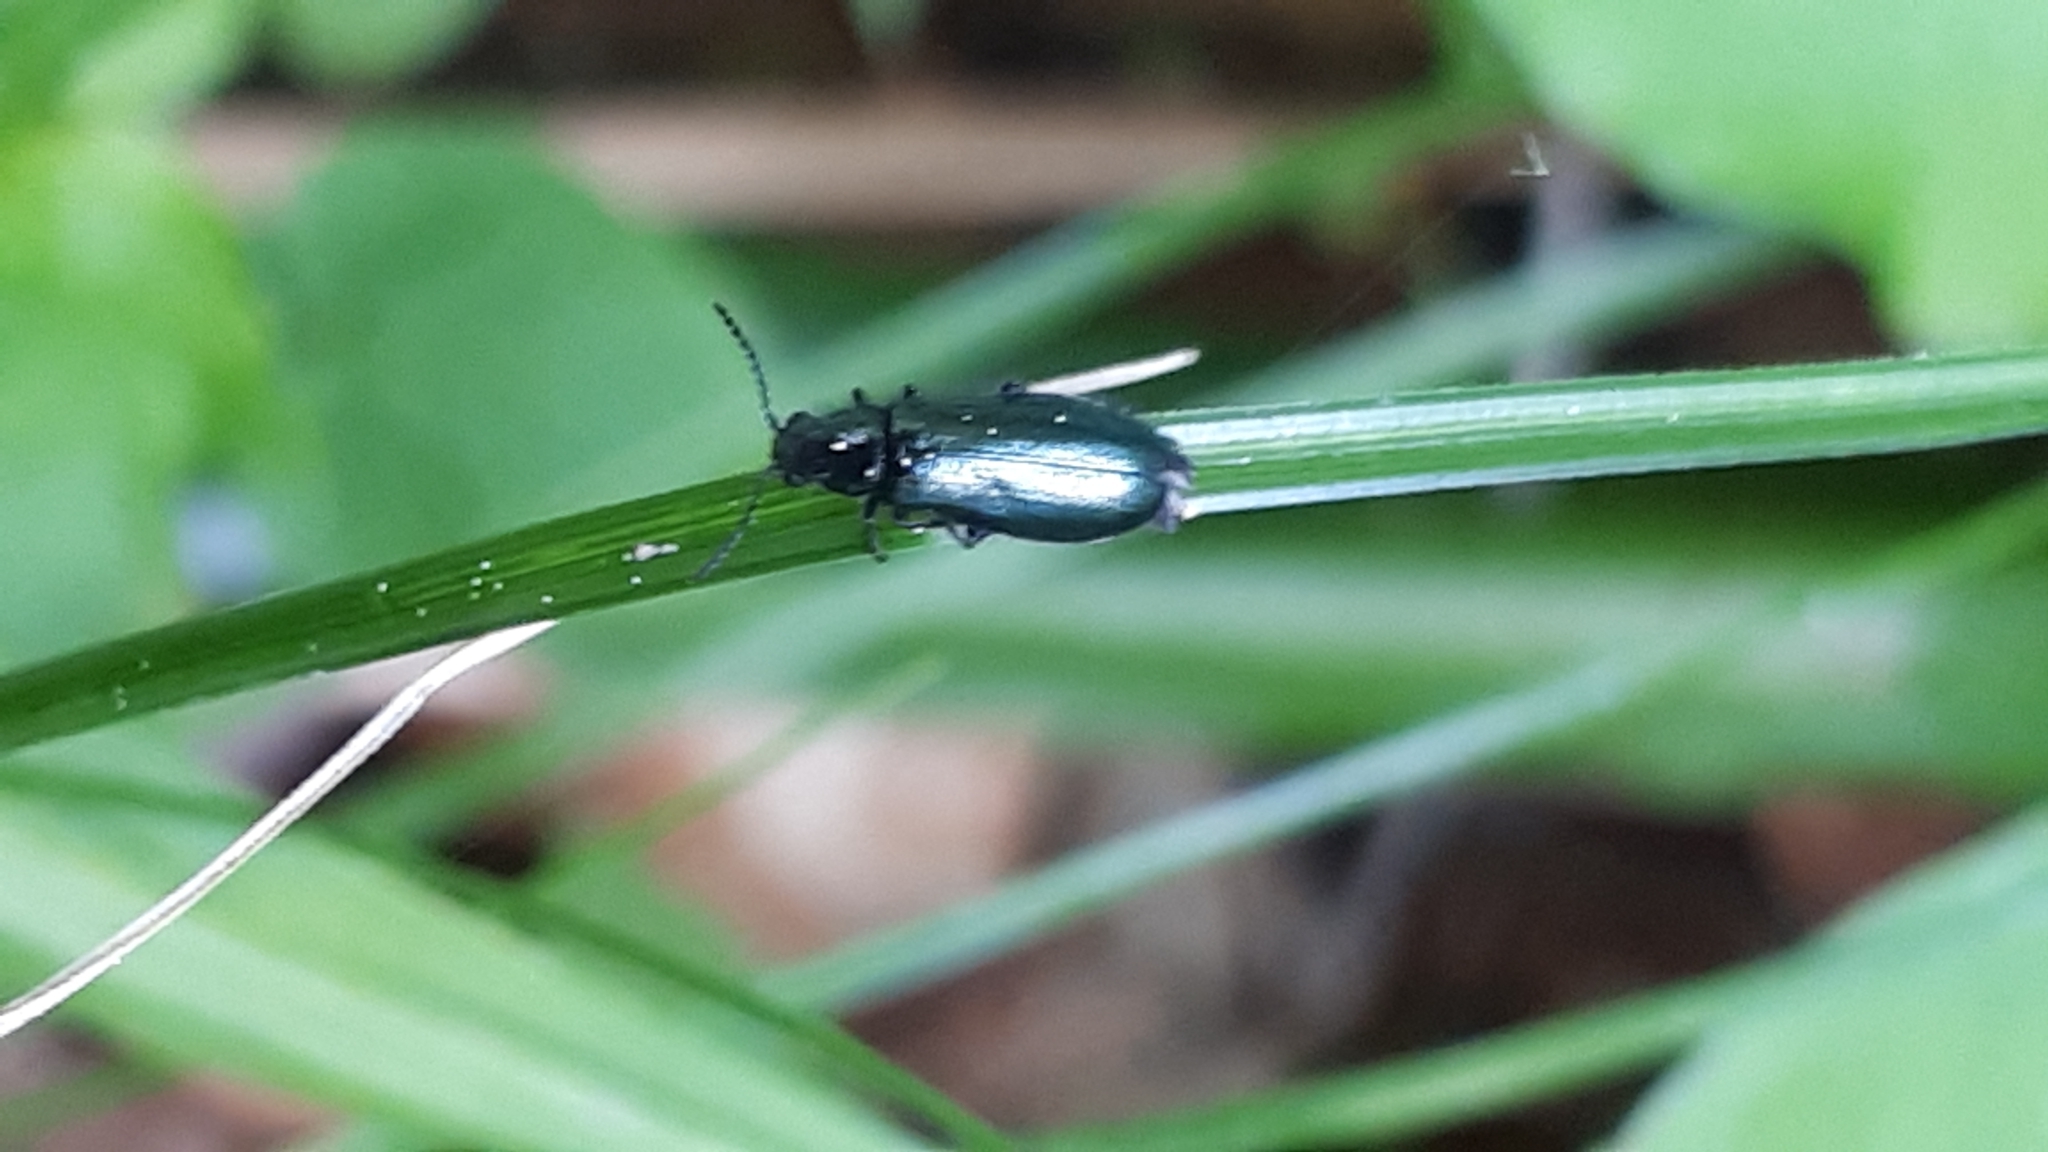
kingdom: Animalia
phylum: Arthropoda
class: Insecta
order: Coleoptera
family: Melyridae
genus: Dasytes
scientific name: Dasytes caeruleus
